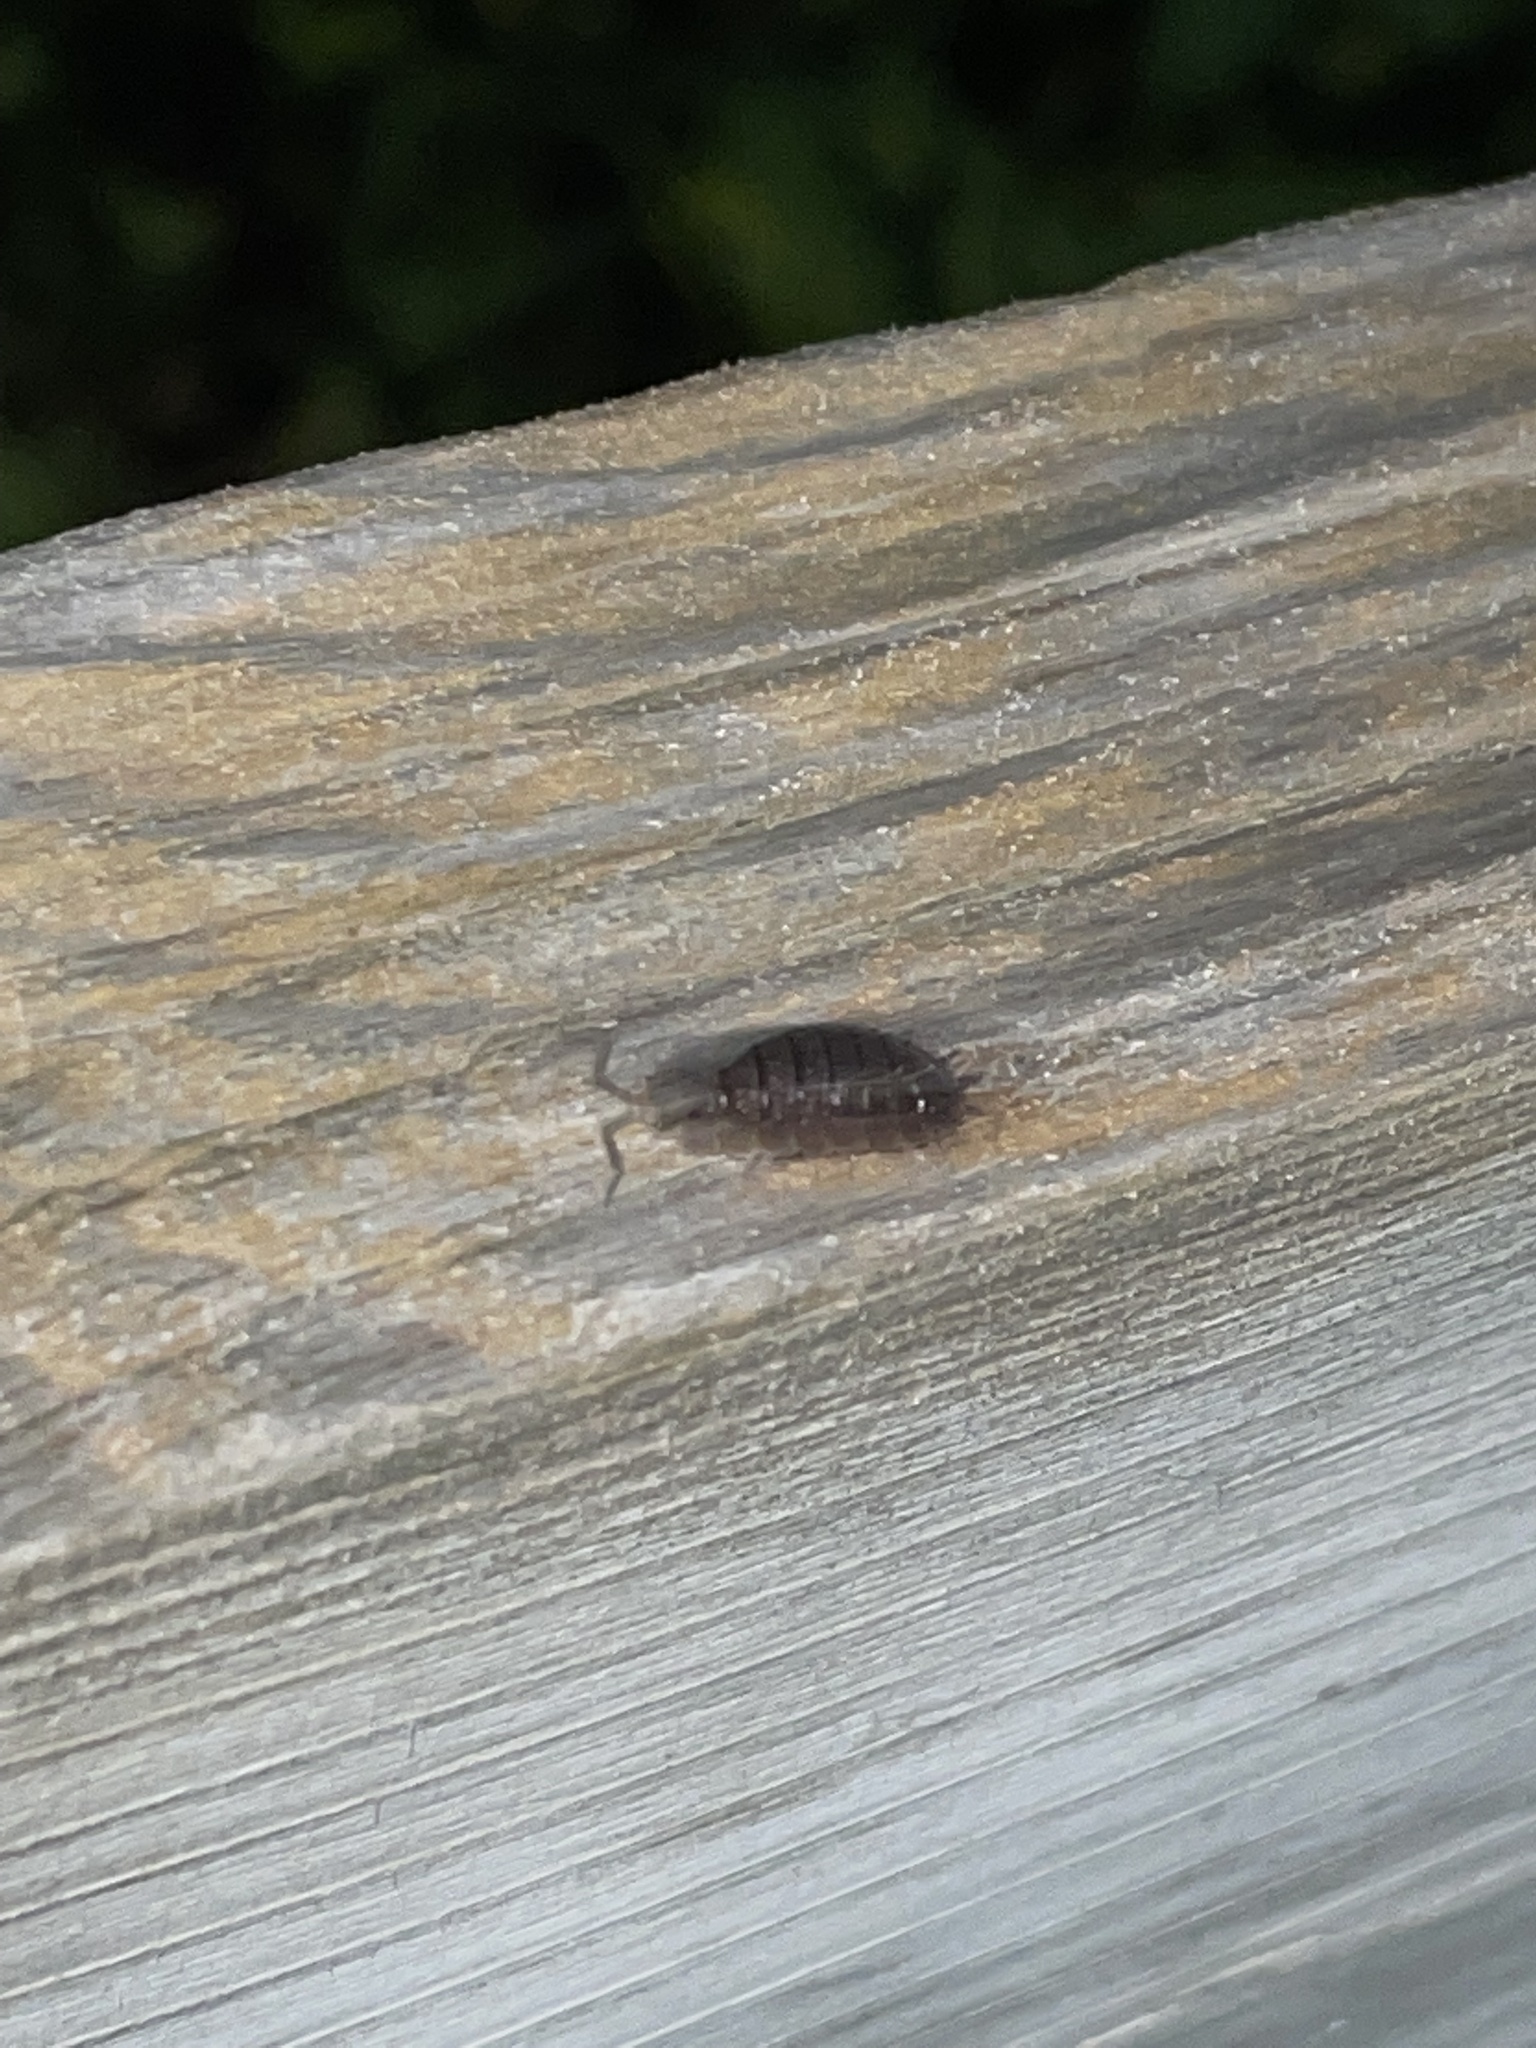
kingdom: Animalia
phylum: Arthropoda
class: Malacostraca
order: Isopoda
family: Porcellionidae
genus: Porcellio
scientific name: Porcellio scaber
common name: Common rough woodlouse
